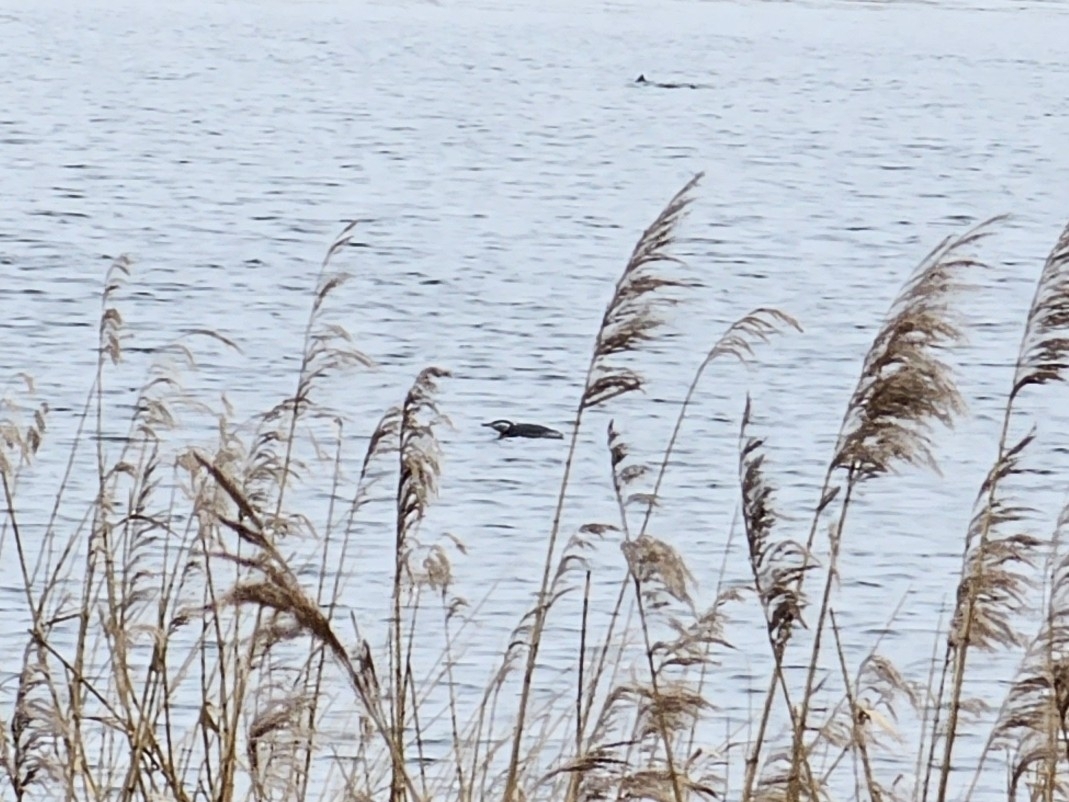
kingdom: Animalia
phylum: Chordata
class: Aves
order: Podicipediformes
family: Podicipedidae
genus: Podiceps
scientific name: Podiceps grisegena
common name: Red-necked grebe
